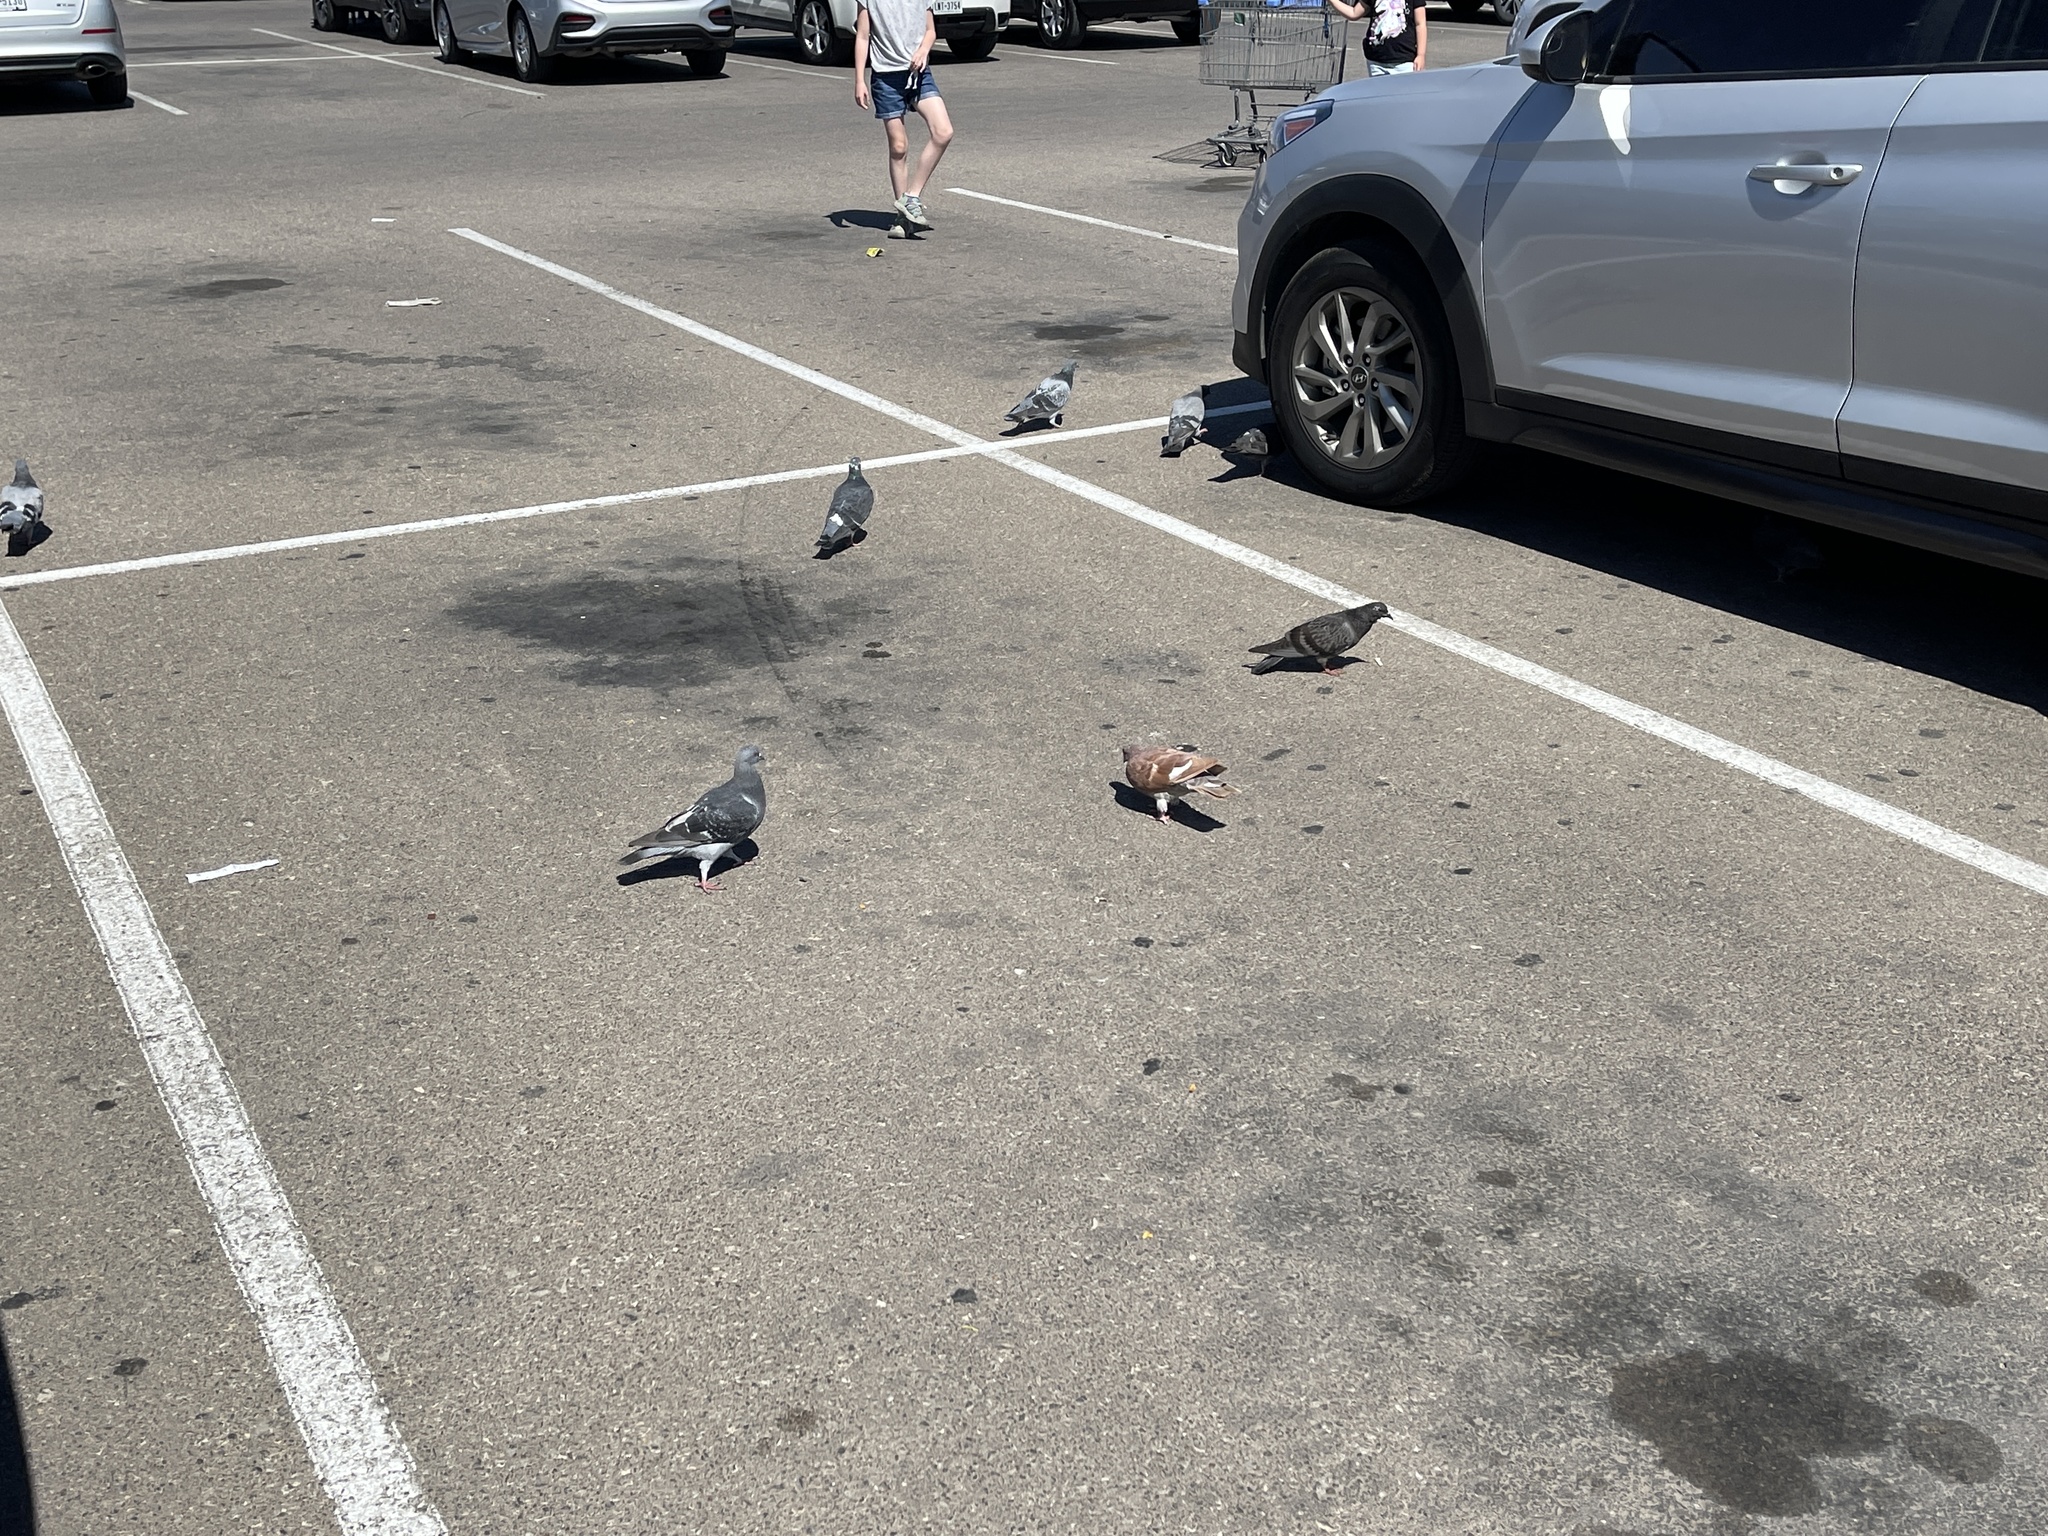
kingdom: Animalia
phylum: Chordata
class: Aves
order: Columbiformes
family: Columbidae
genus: Columba
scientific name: Columba livia
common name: Rock pigeon
